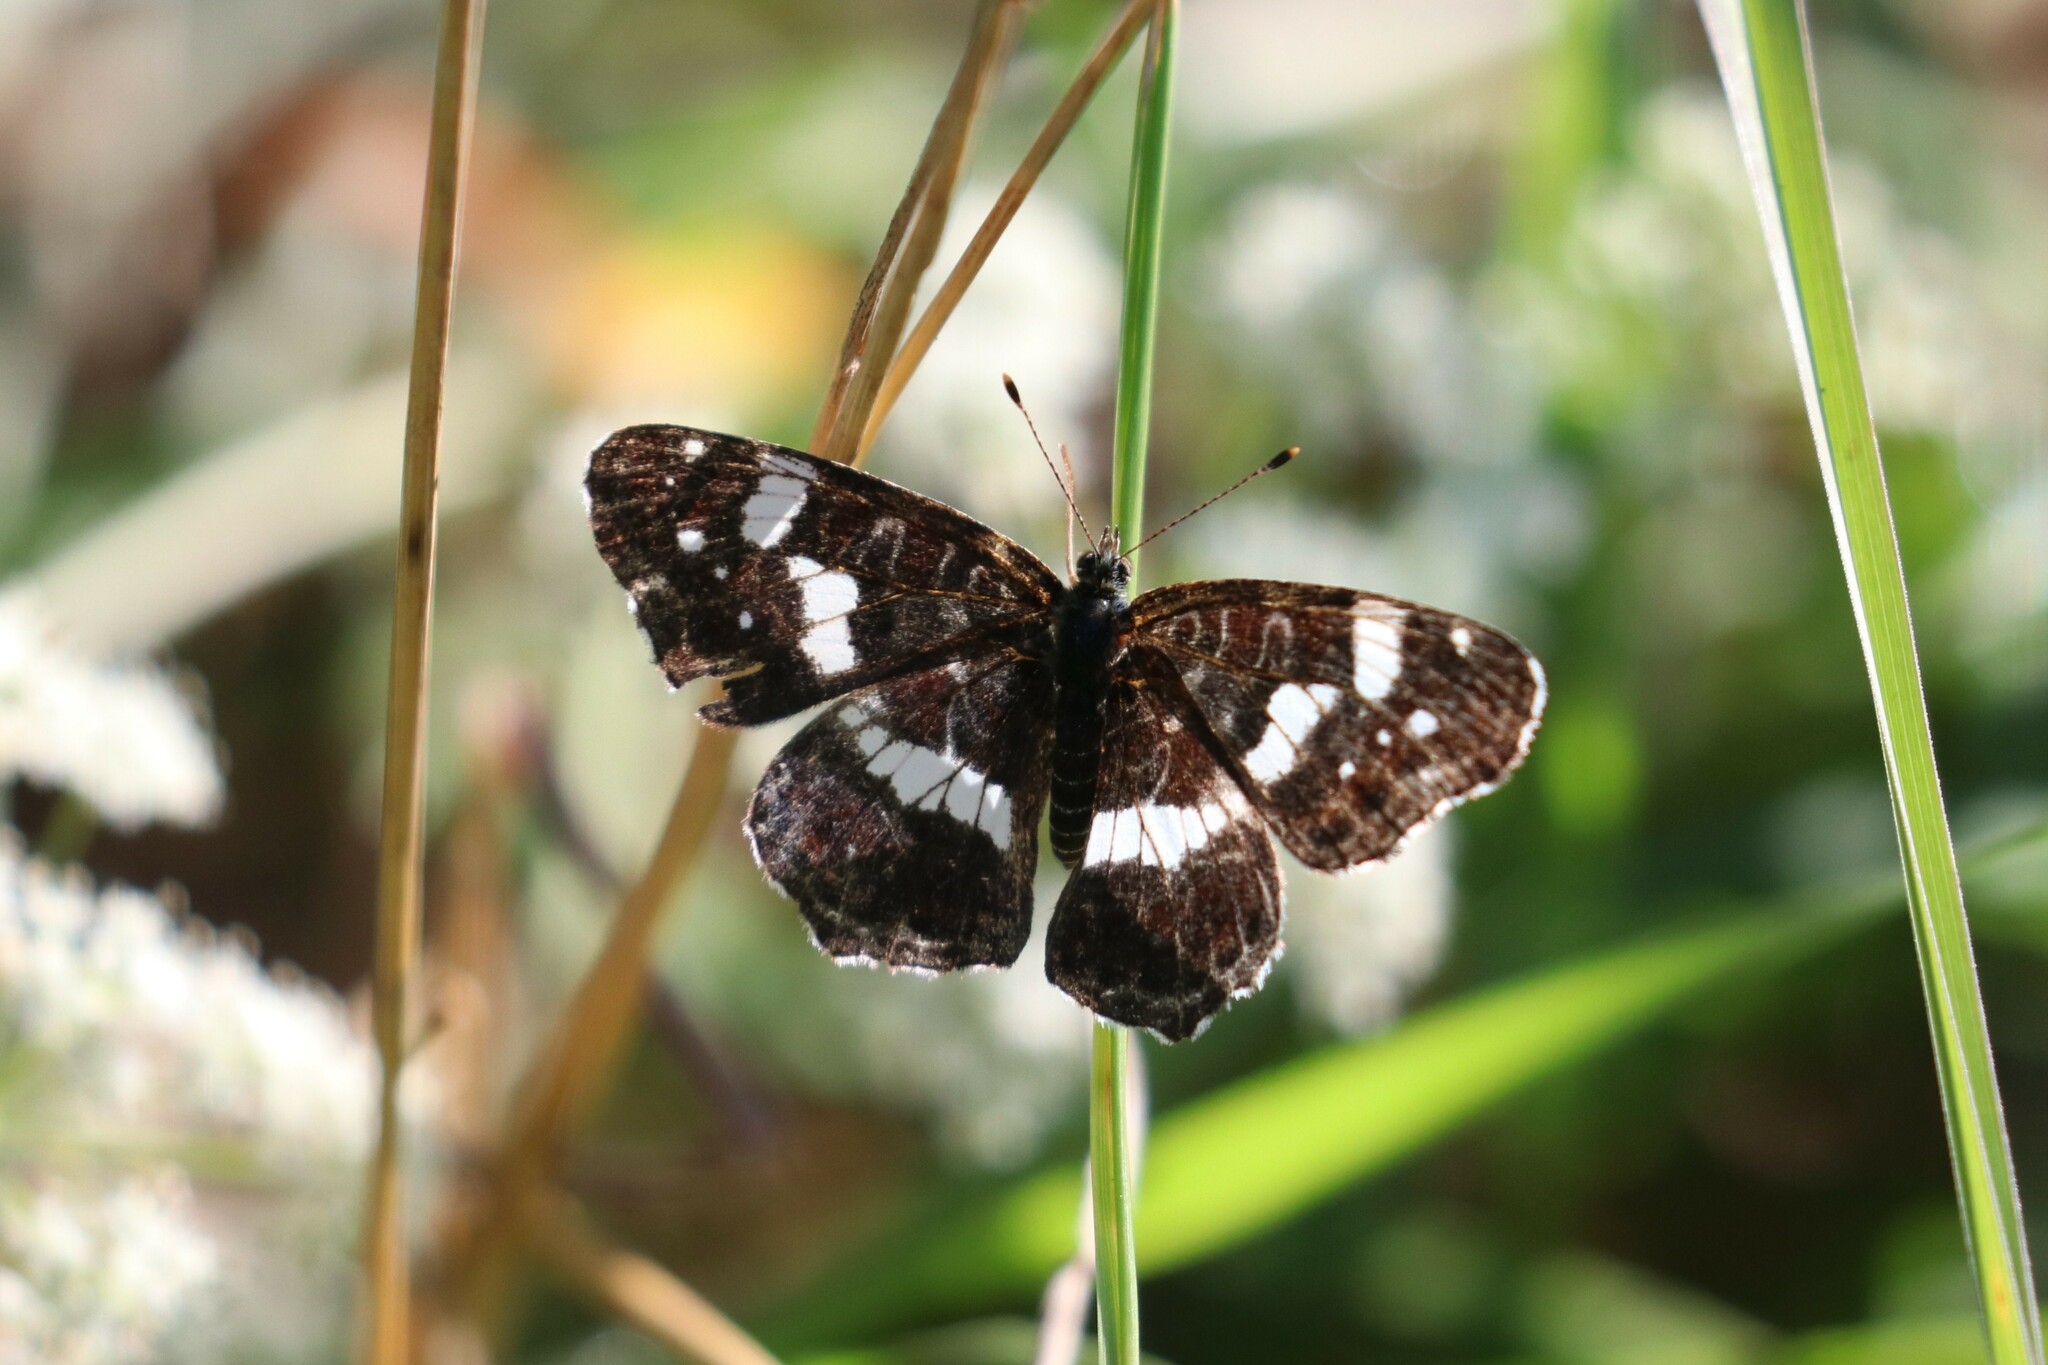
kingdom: Animalia
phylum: Arthropoda
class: Insecta
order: Lepidoptera
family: Nymphalidae
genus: Araschnia
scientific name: Araschnia levana
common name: Map butterfly
